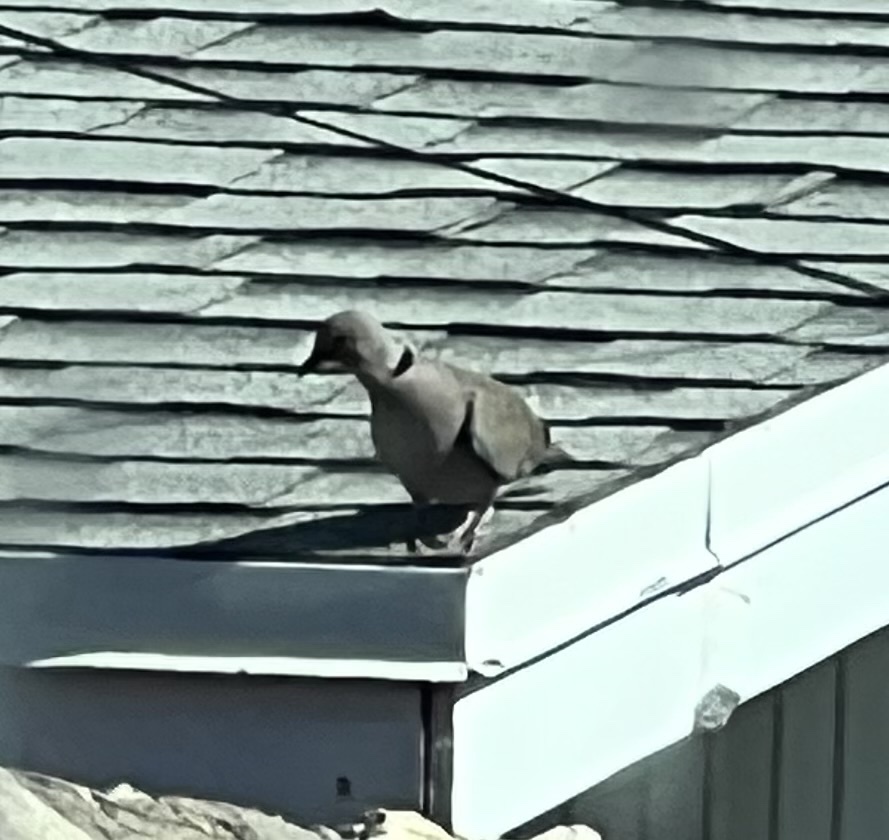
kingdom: Animalia
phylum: Chordata
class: Aves
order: Columbiformes
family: Columbidae
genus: Streptopelia
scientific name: Streptopelia decaocto
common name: Eurasian collared dove
